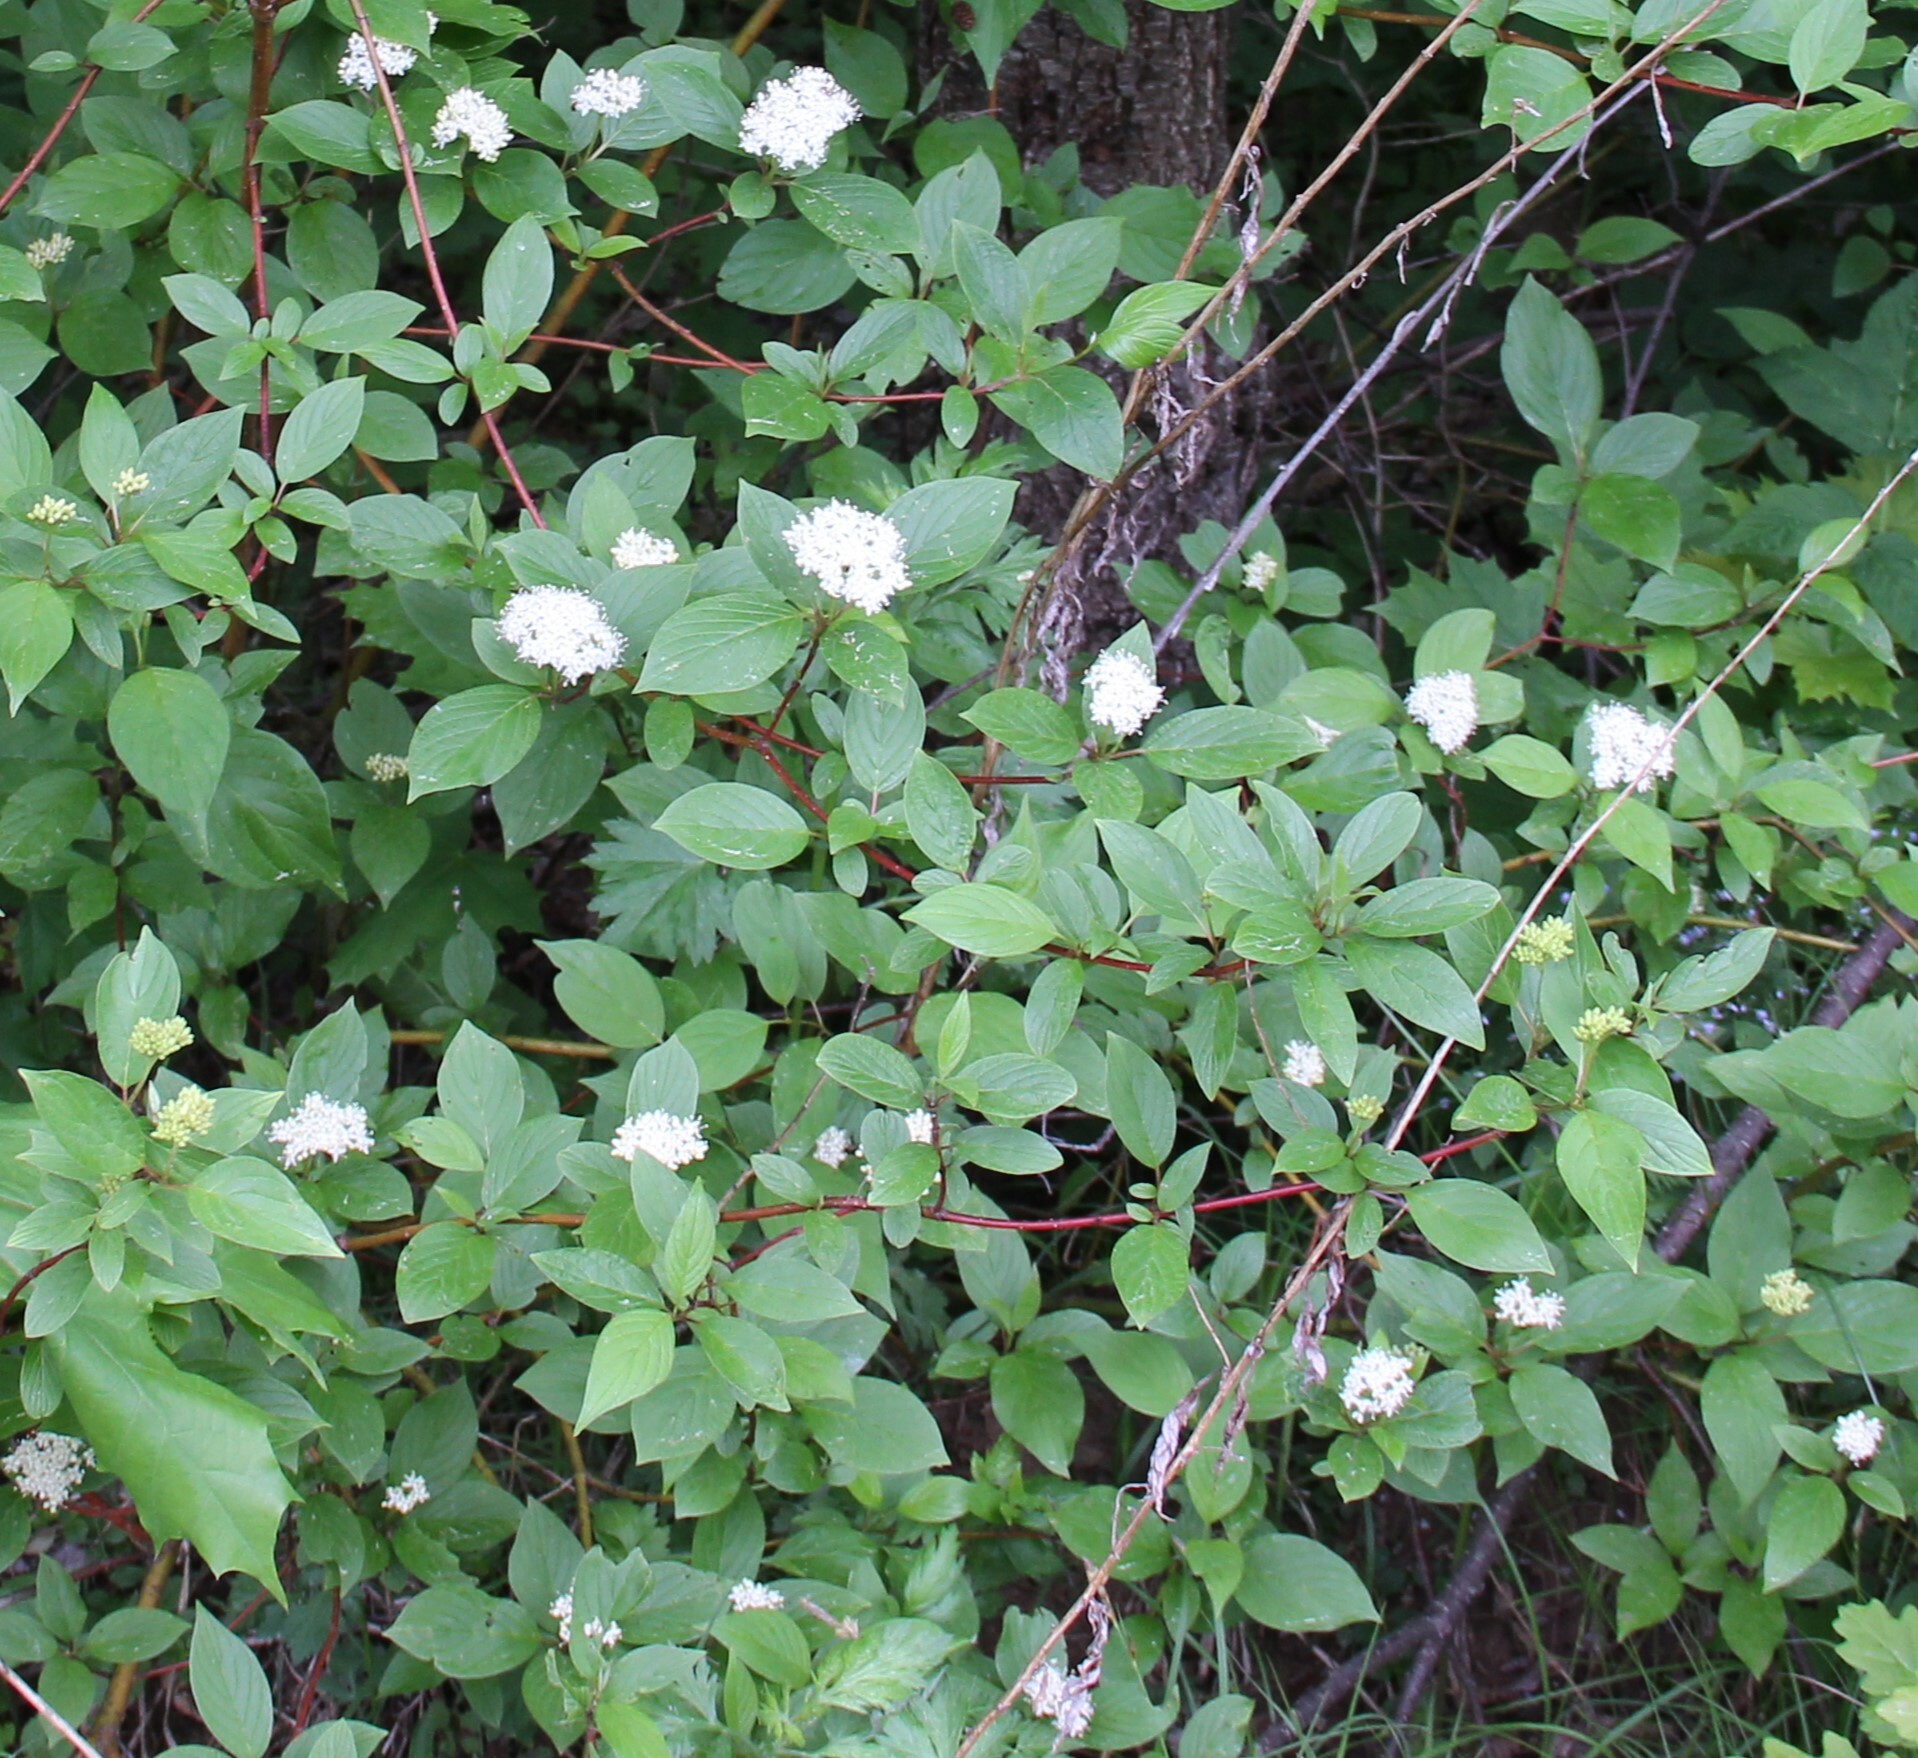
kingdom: Plantae
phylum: Tracheophyta
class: Magnoliopsida
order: Cornales
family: Cornaceae
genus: Cornus
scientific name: Cornus alba
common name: White dogwood
